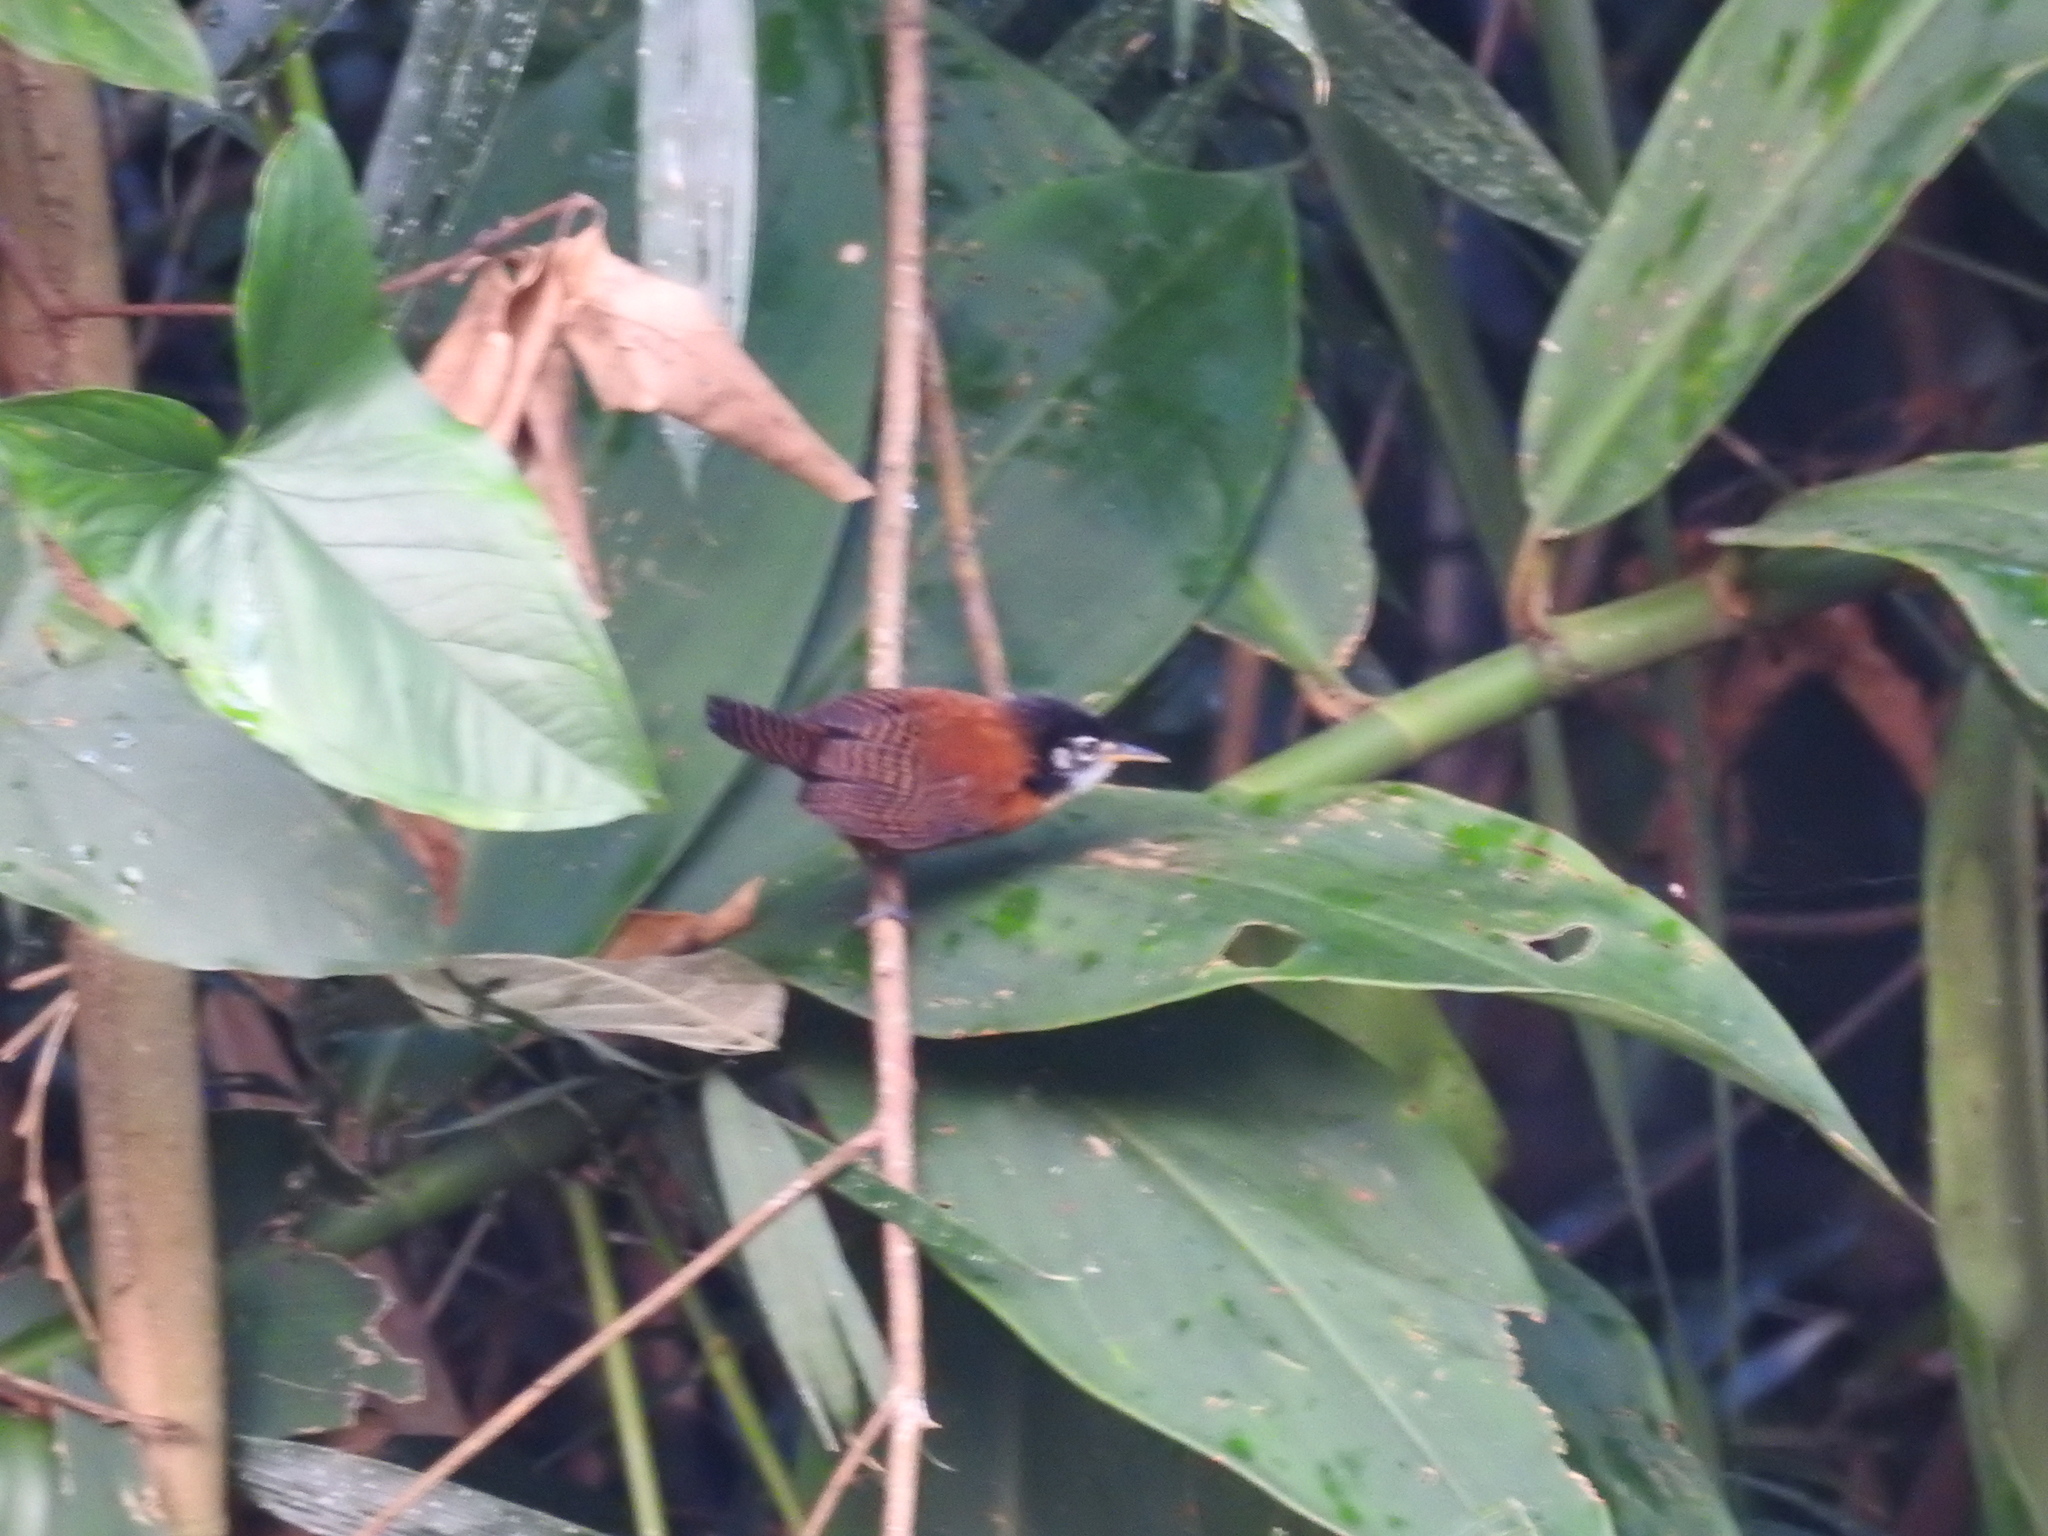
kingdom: Animalia
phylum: Chordata
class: Aves
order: Passeriformes
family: Troglodytidae
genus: Cantorchilus
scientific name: Cantorchilus nigricapillus
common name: Bay wren
